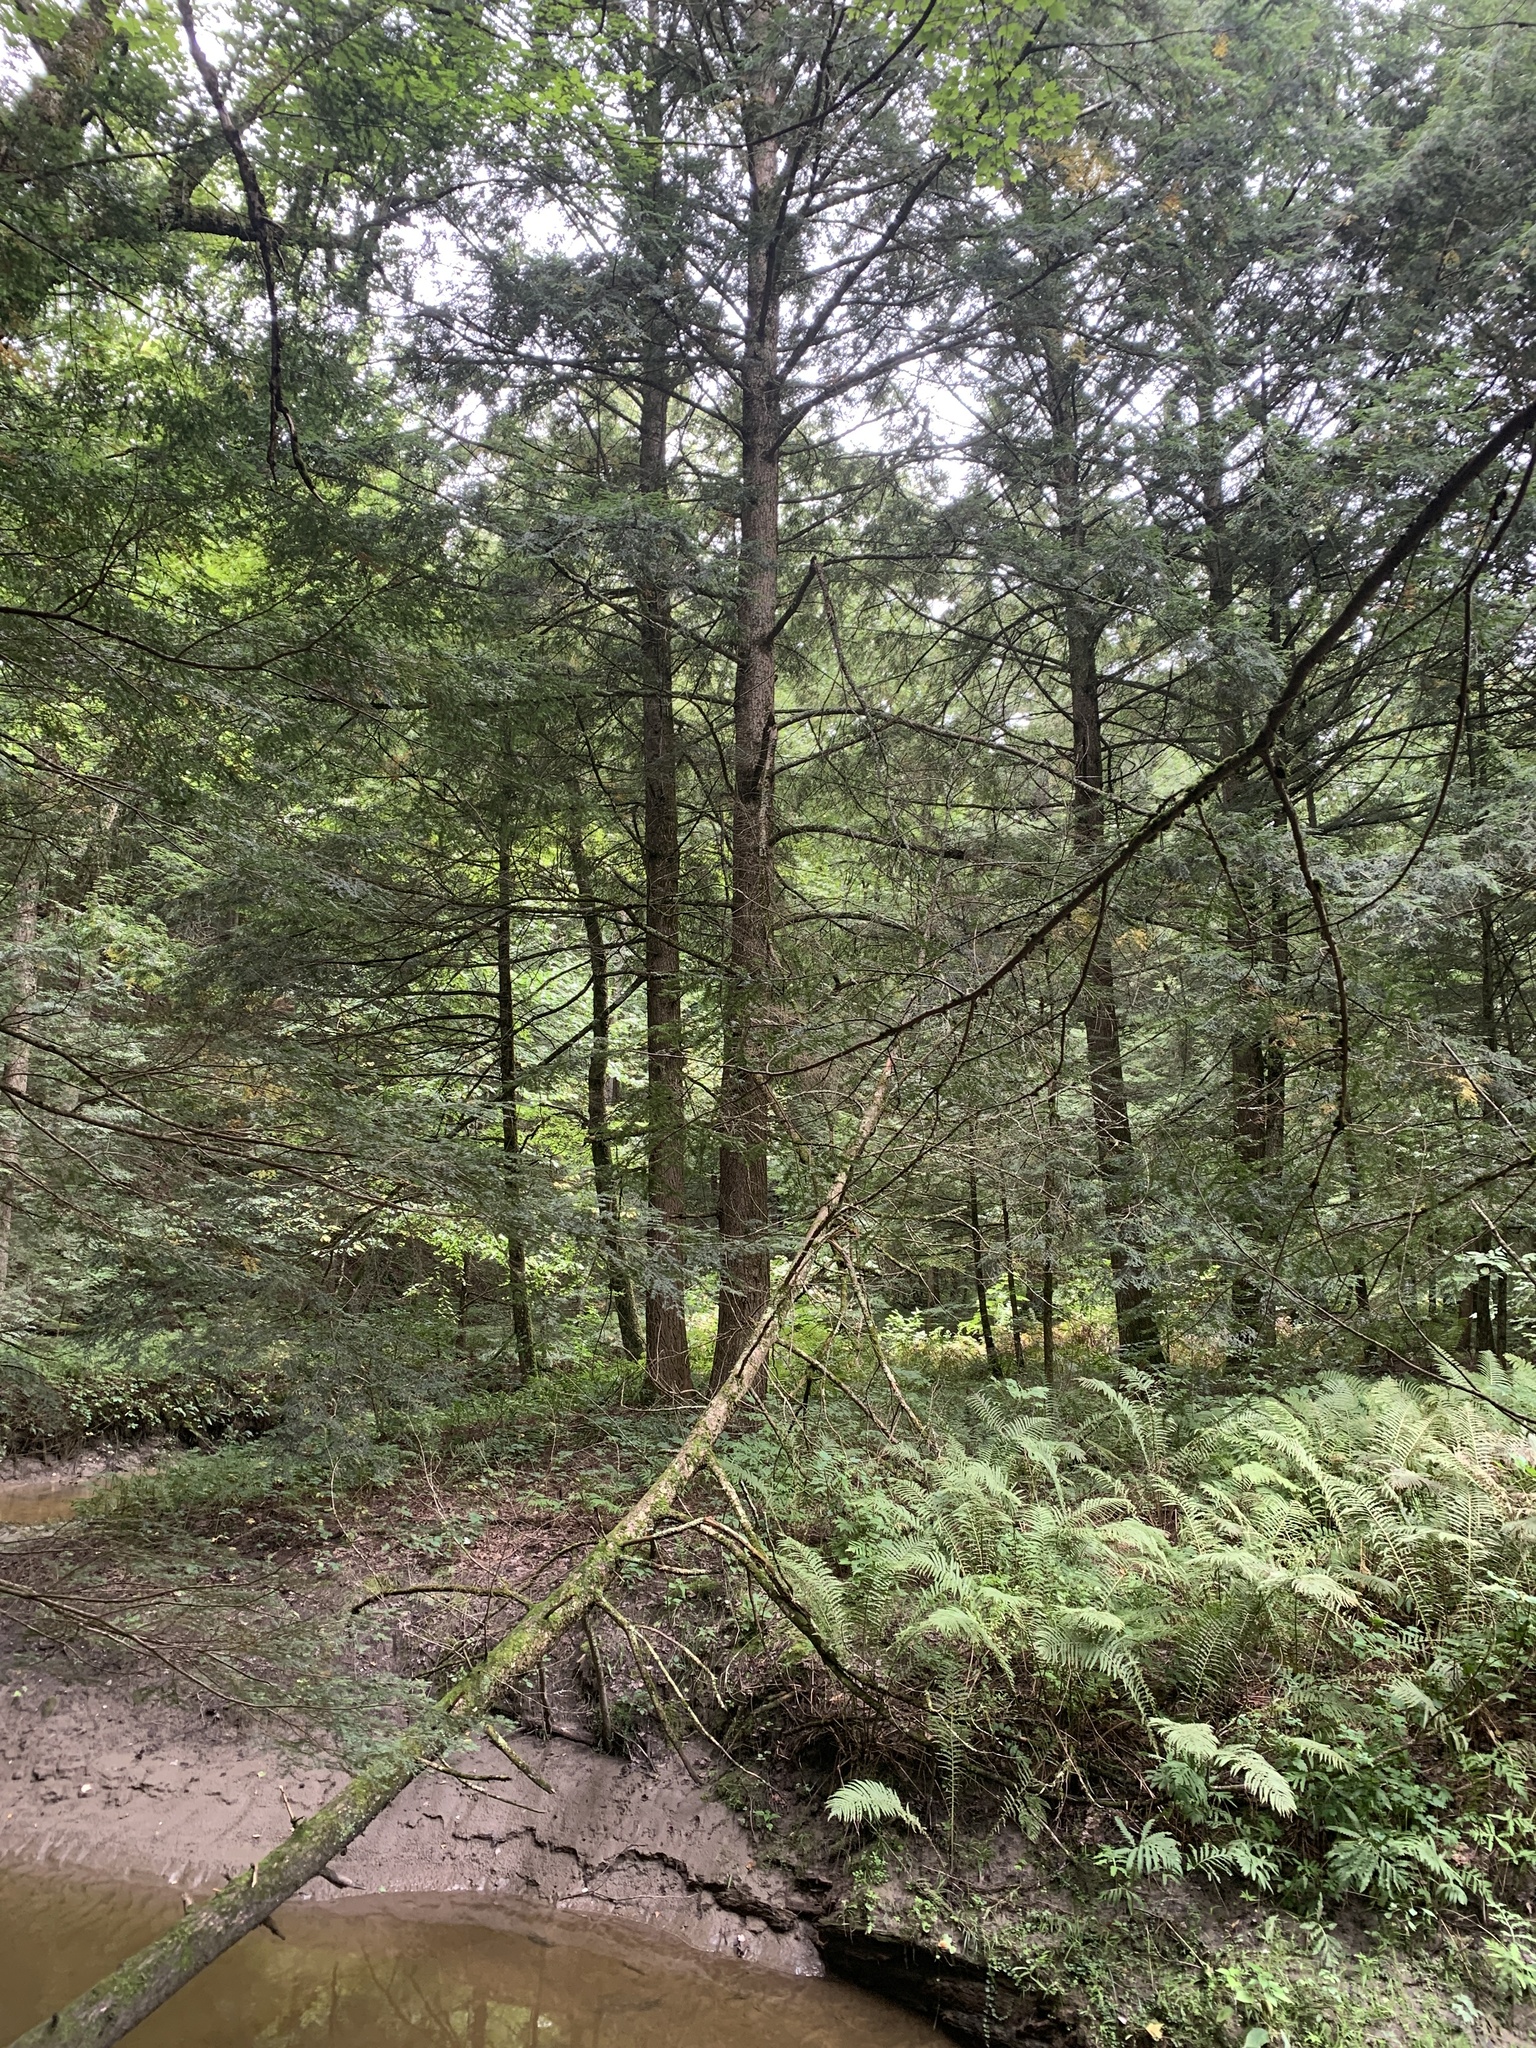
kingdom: Plantae
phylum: Tracheophyta
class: Pinopsida
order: Pinales
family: Pinaceae
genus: Tsuga
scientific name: Tsuga canadensis
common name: Eastern hemlock
